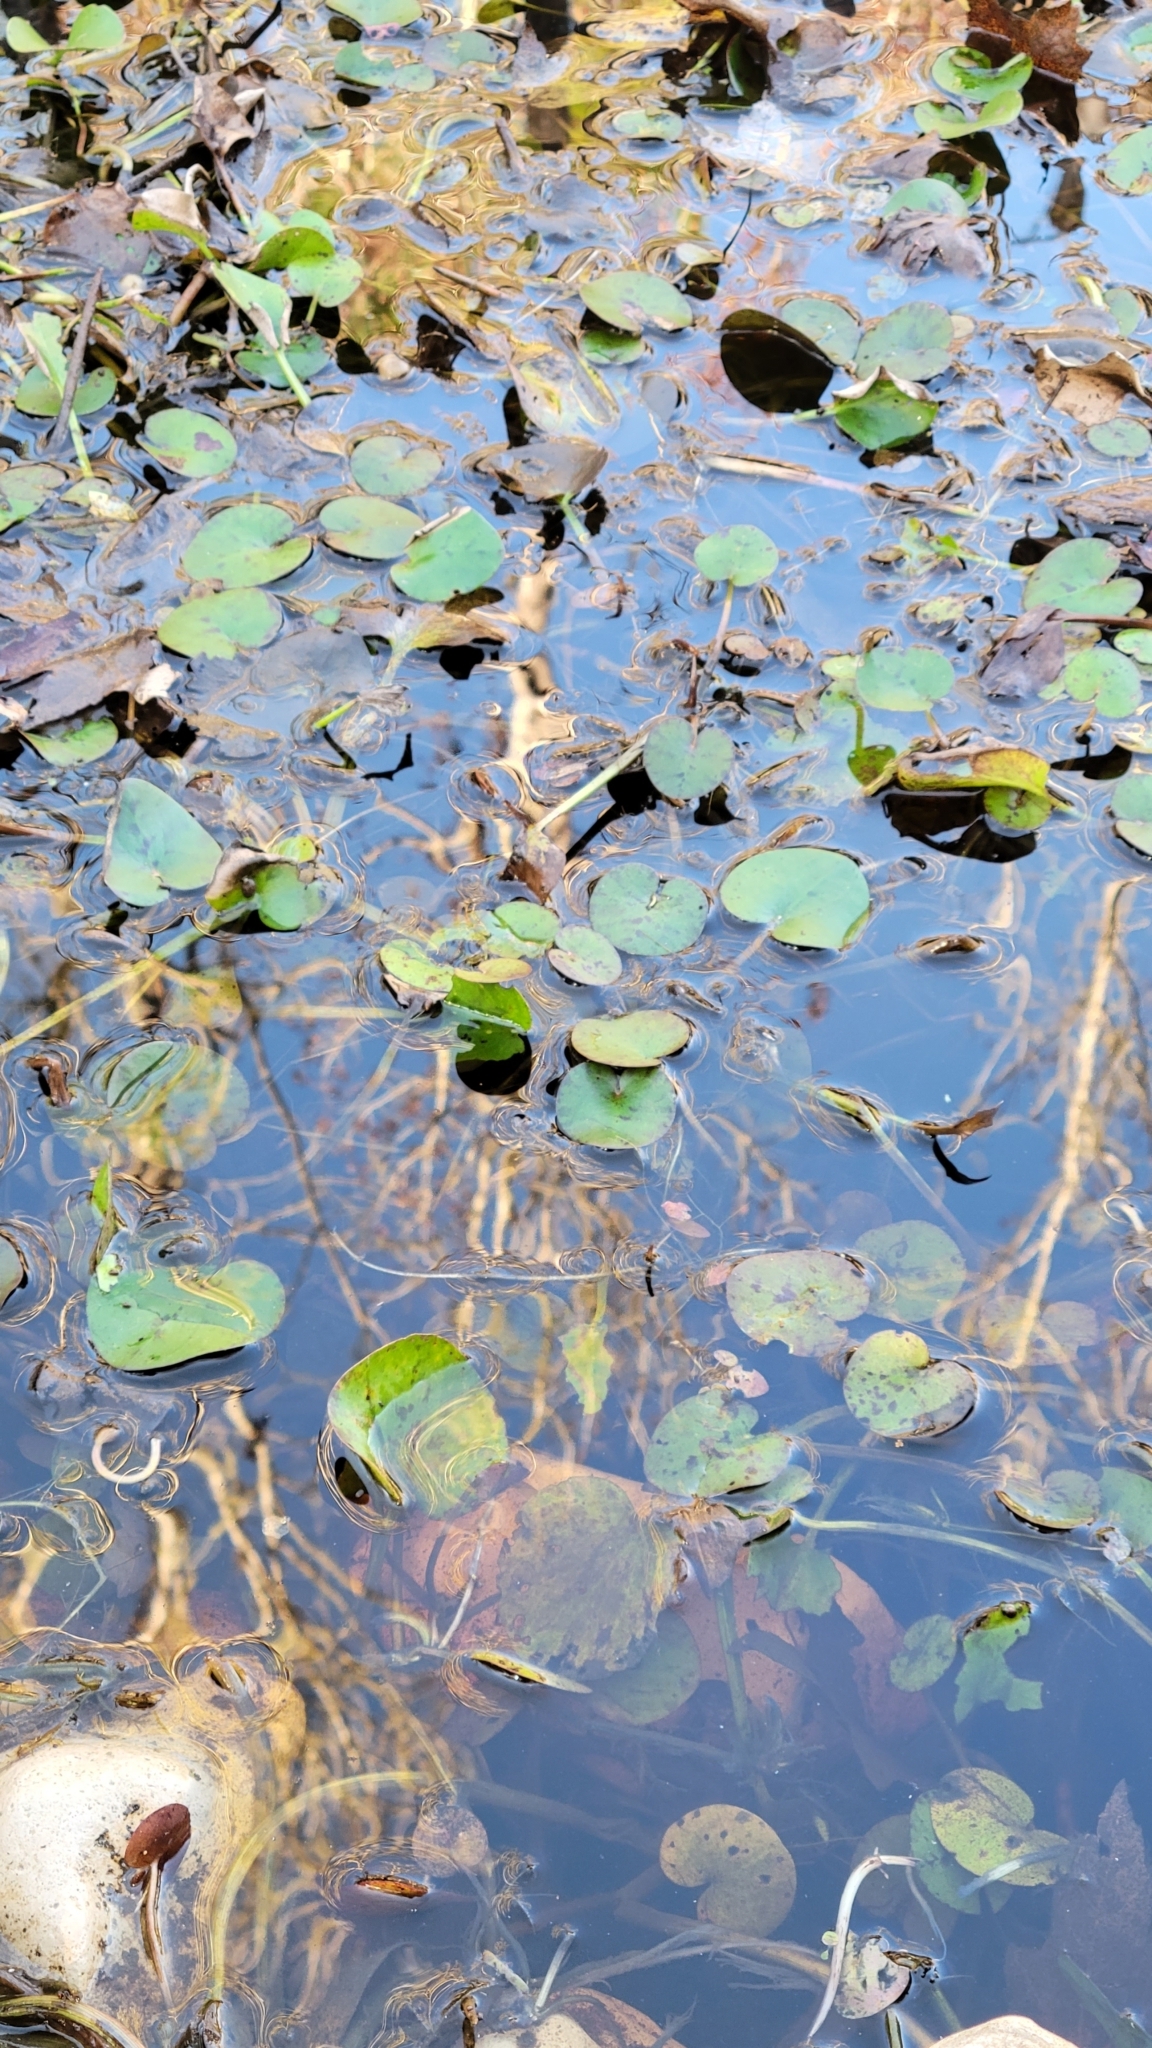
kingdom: Plantae
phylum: Tracheophyta
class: Liliopsida
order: Alismatales
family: Hydrocharitaceae
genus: Hydrocharis
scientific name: Hydrocharis spongia
